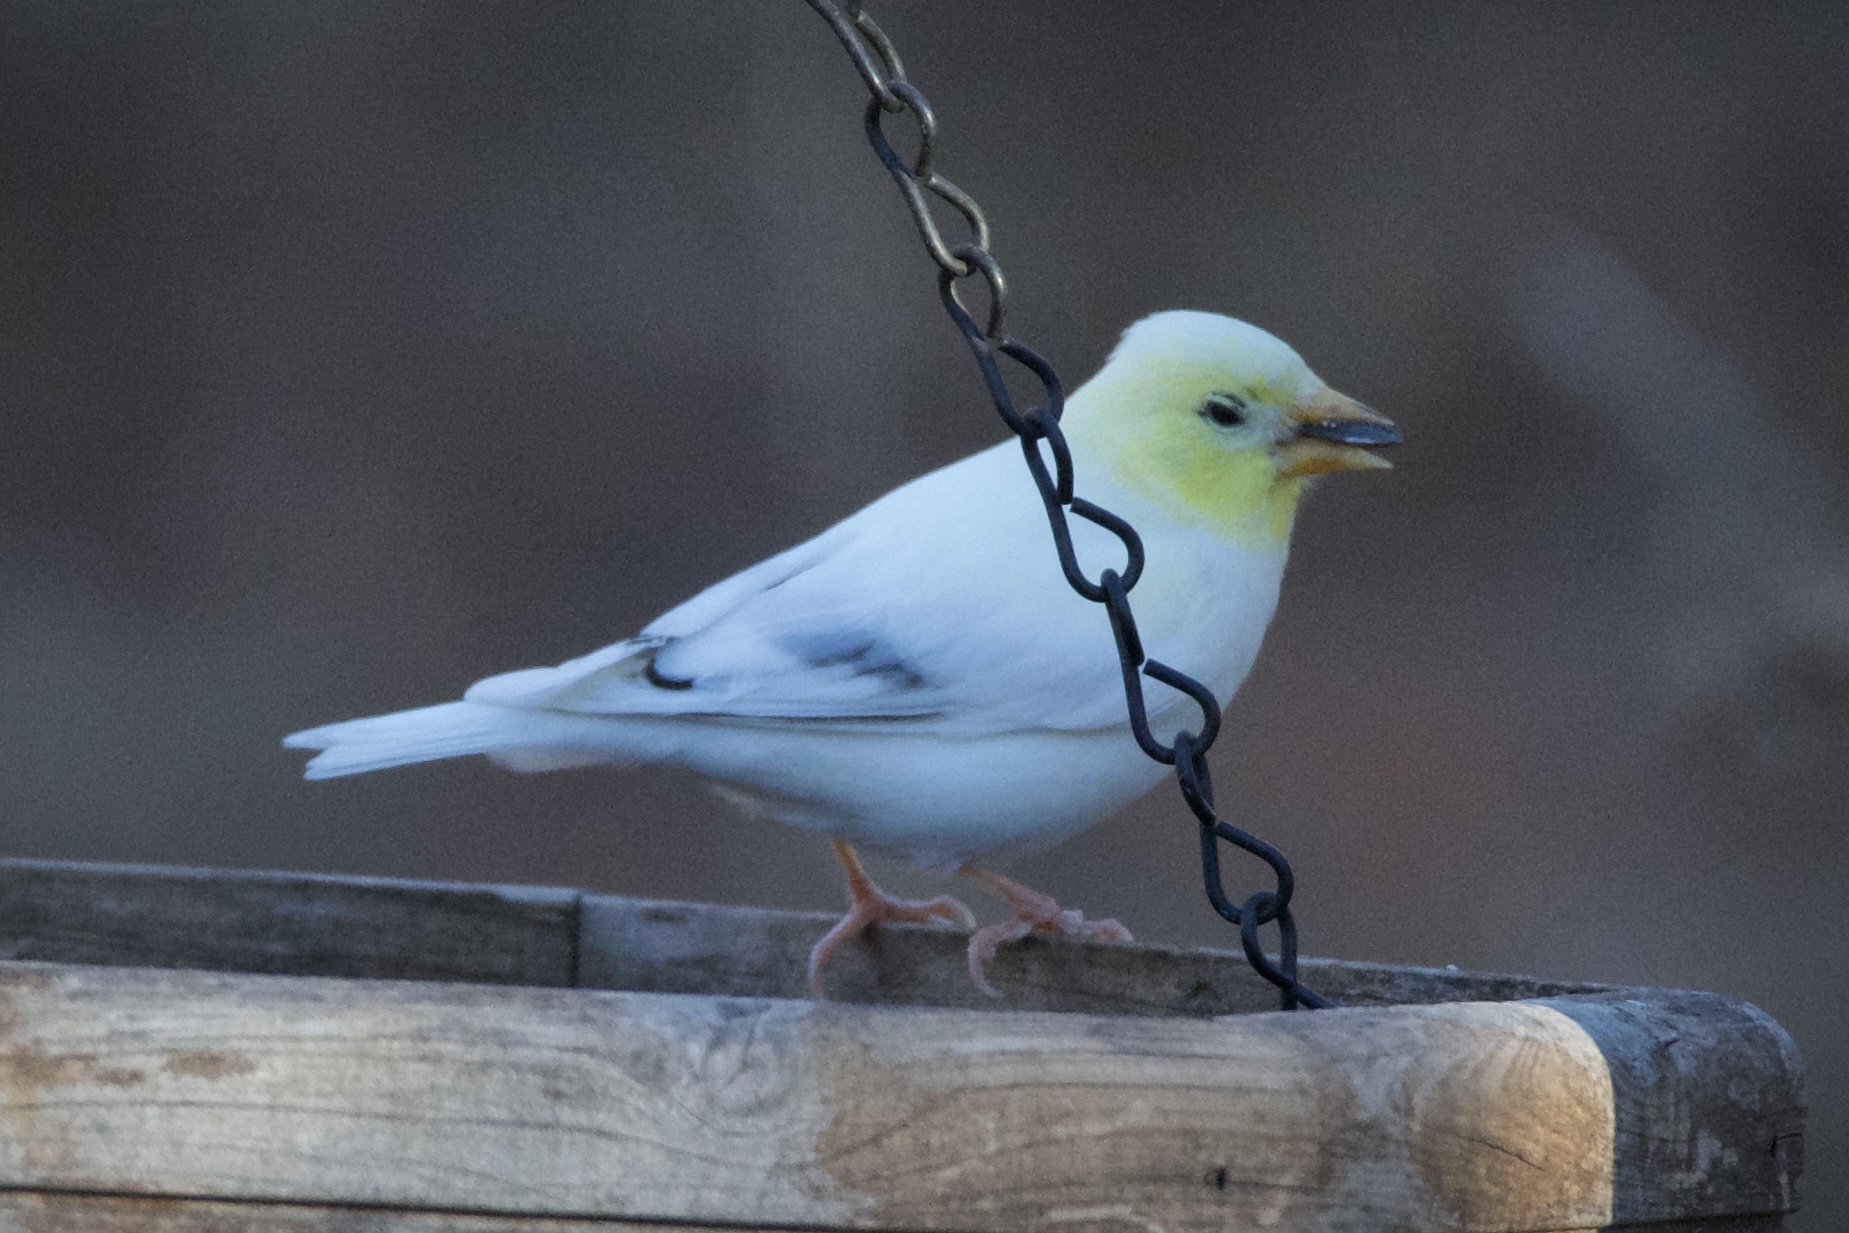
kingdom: Animalia
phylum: Chordata
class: Aves
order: Passeriformes
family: Fringillidae
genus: Spinus
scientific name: Spinus tristis
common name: American goldfinch
